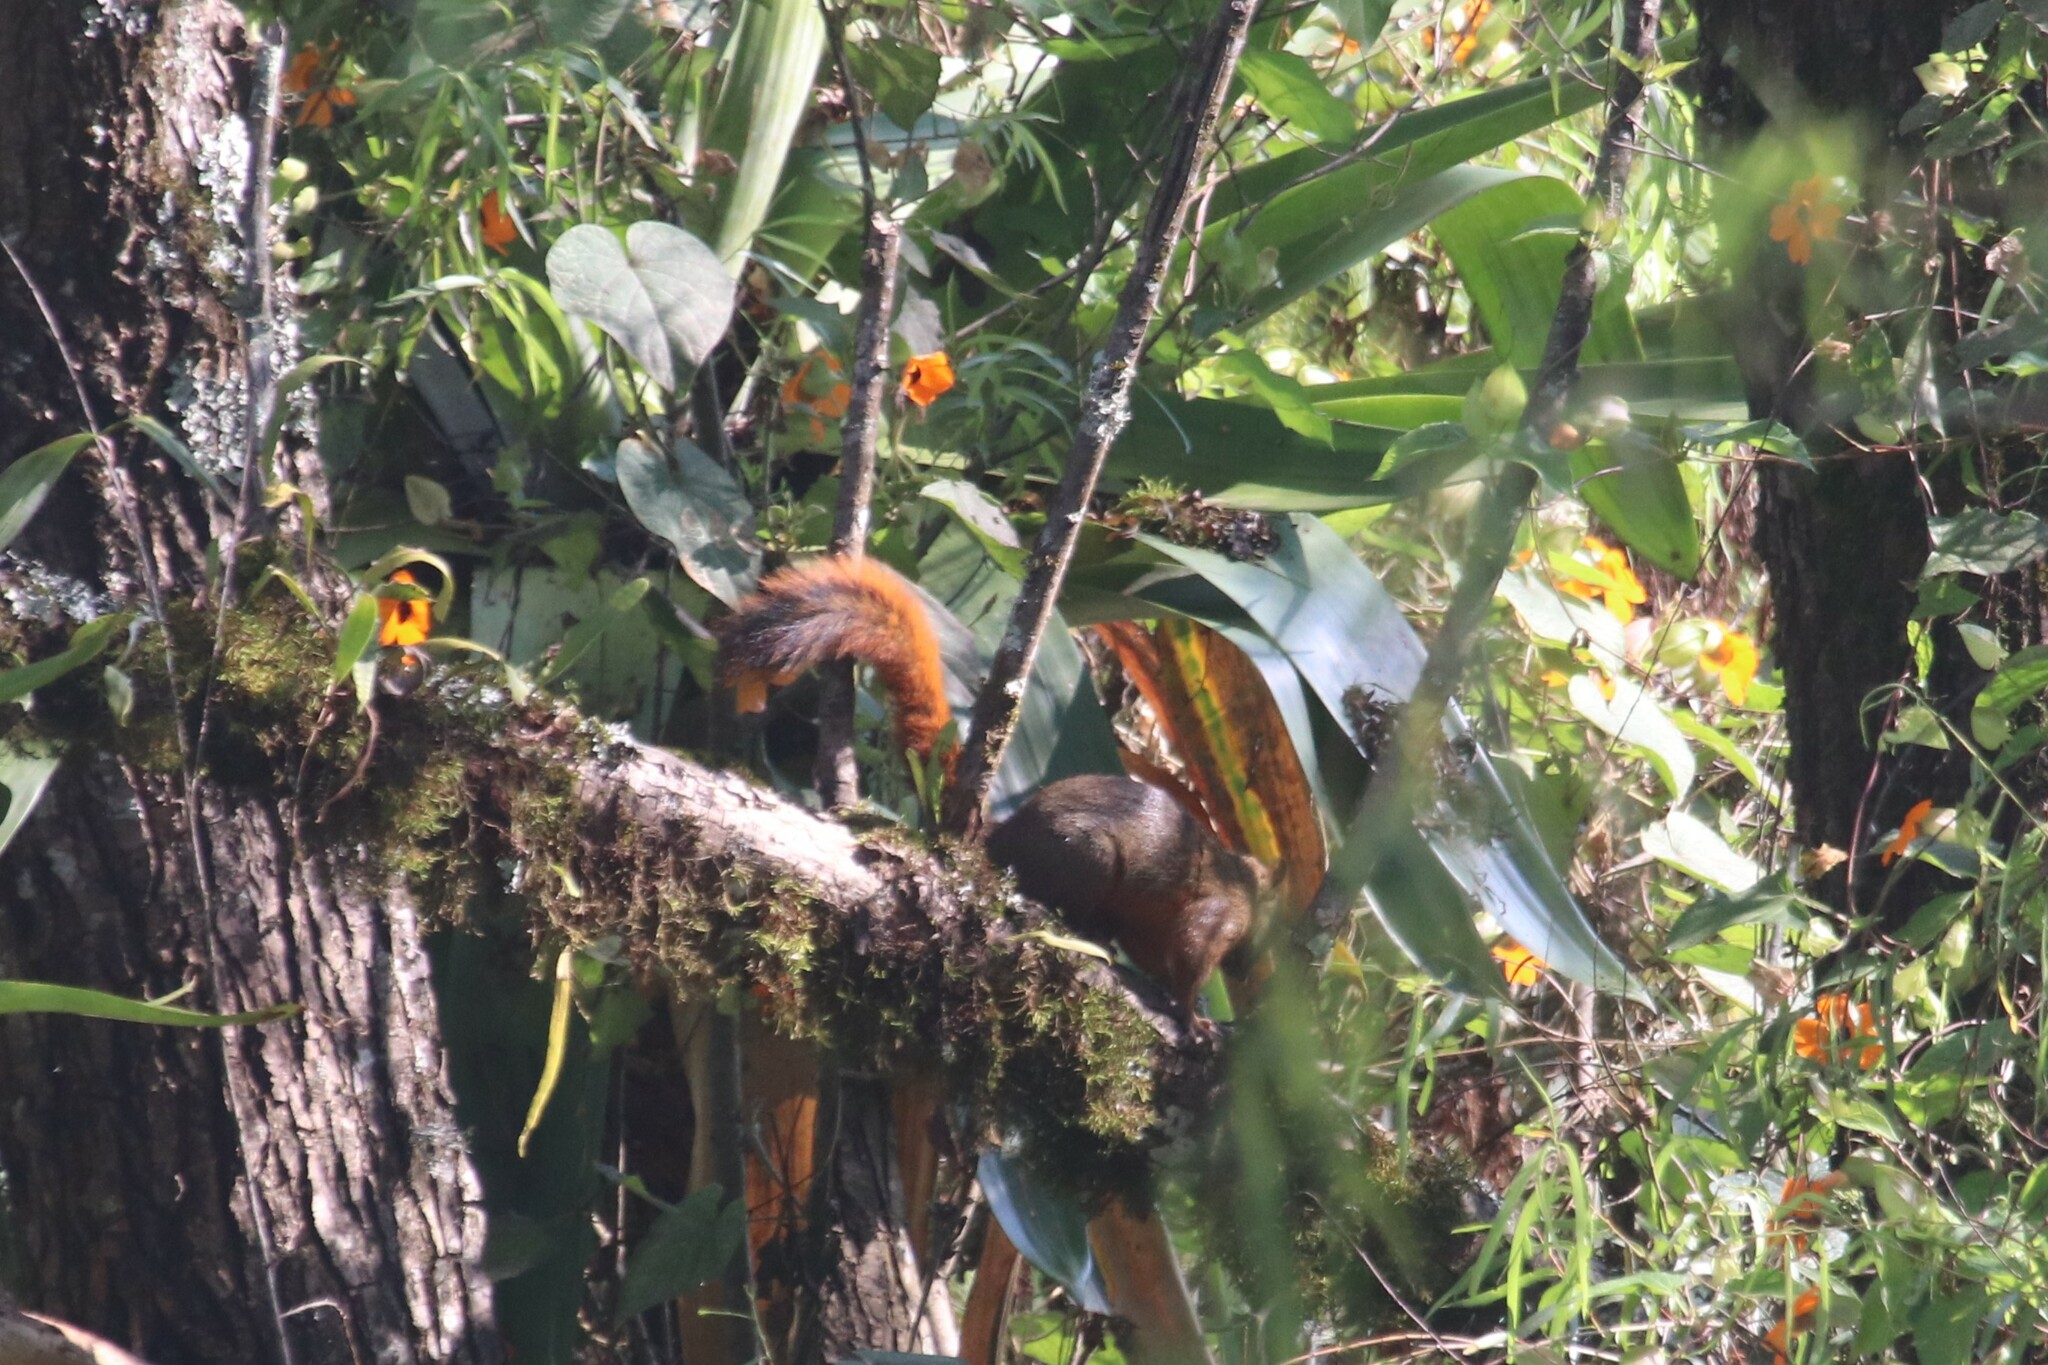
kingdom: Animalia
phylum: Chordata
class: Mammalia
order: Rodentia
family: Sciuridae
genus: Sciurus
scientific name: Sciurus granatensis
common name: Red-tailed squirrel
